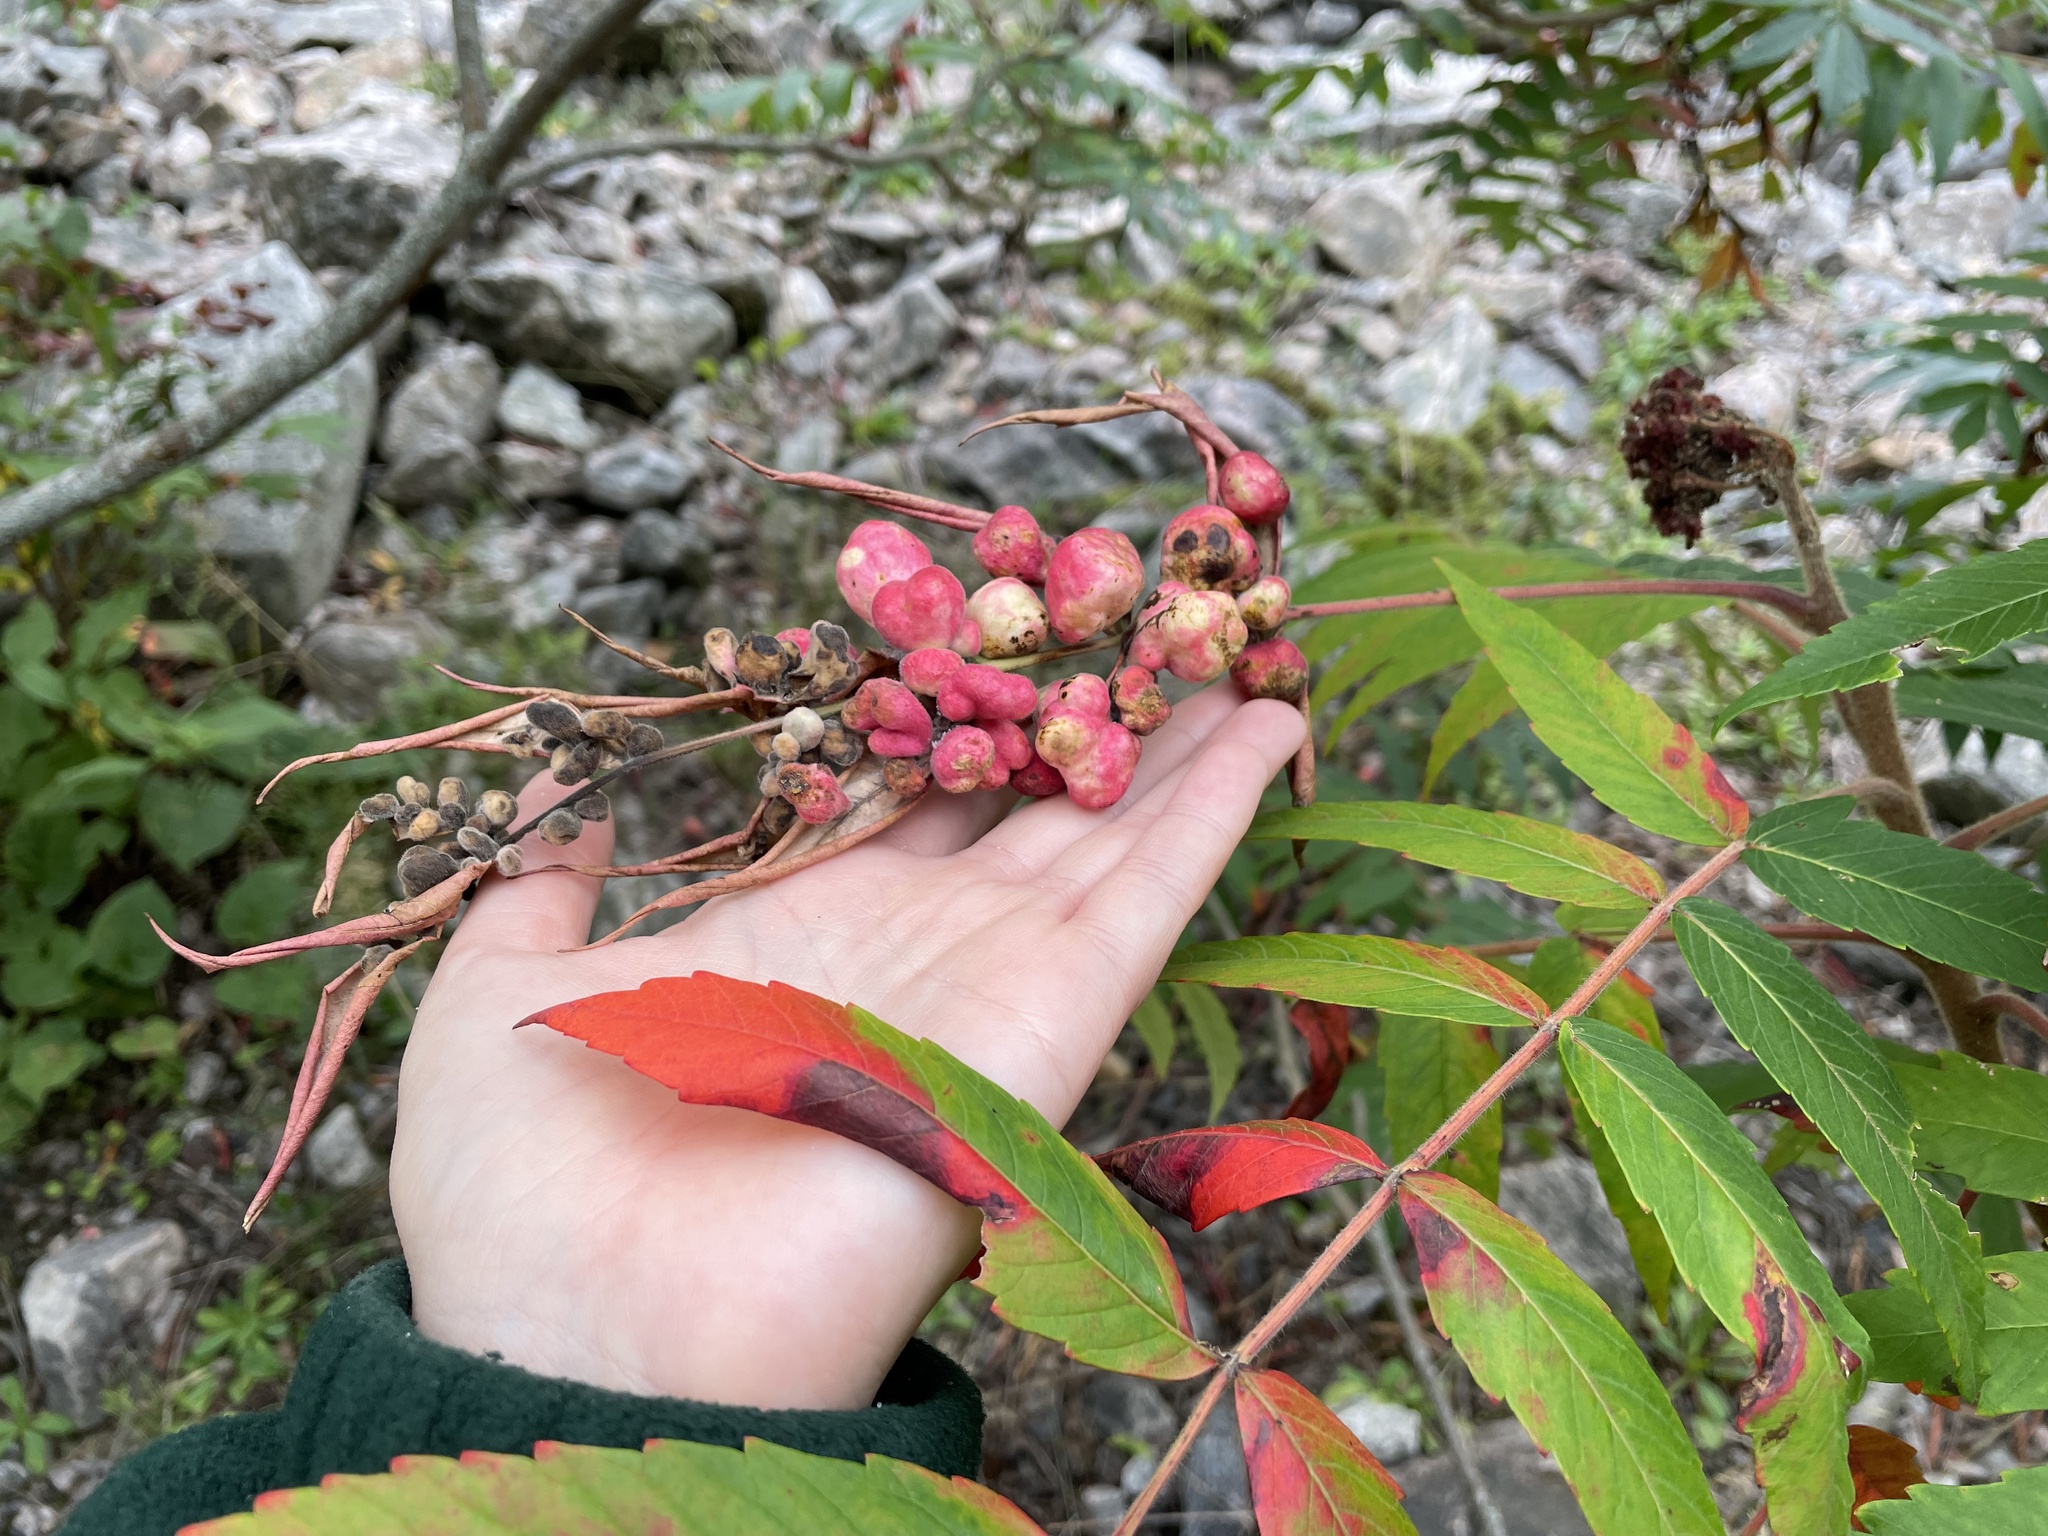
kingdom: Animalia
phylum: Arthropoda
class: Insecta
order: Hemiptera
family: Aphididae
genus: Melaphis
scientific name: Melaphis rhois
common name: Sumac gall aphid
